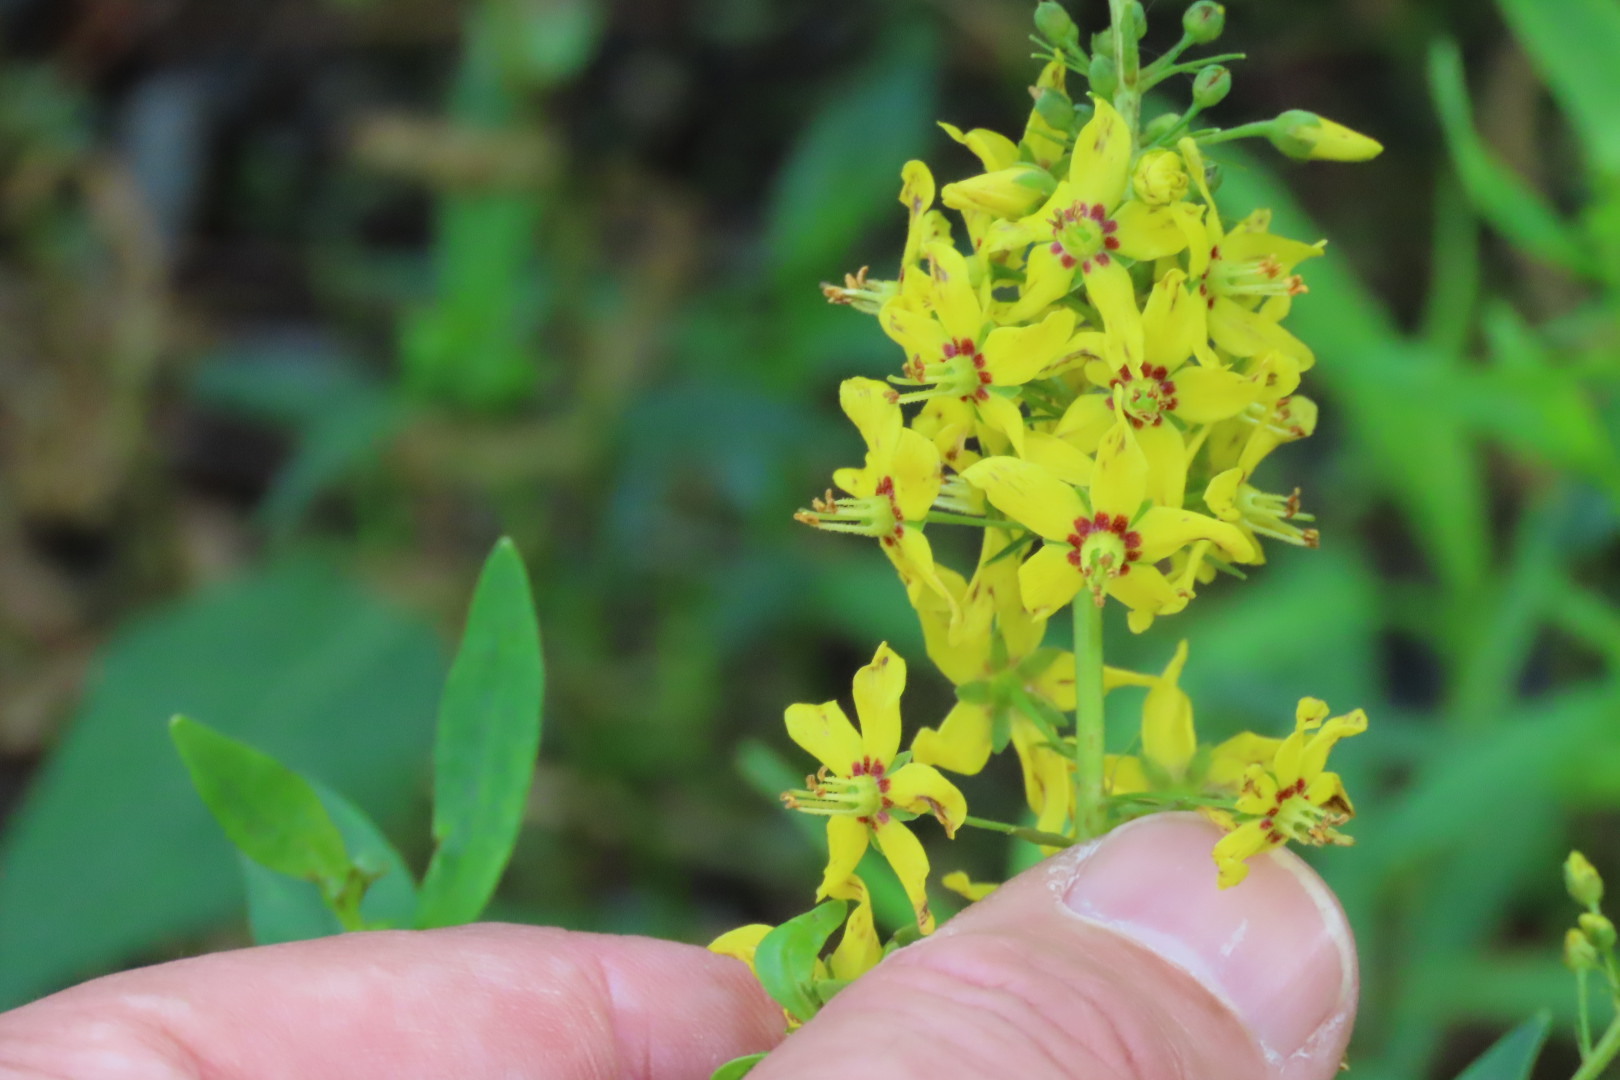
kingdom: Plantae
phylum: Tracheophyta
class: Magnoliopsida
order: Ericales
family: Primulaceae
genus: Lysimachia
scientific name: Lysimachia terrestris
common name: Lake loosestrife
